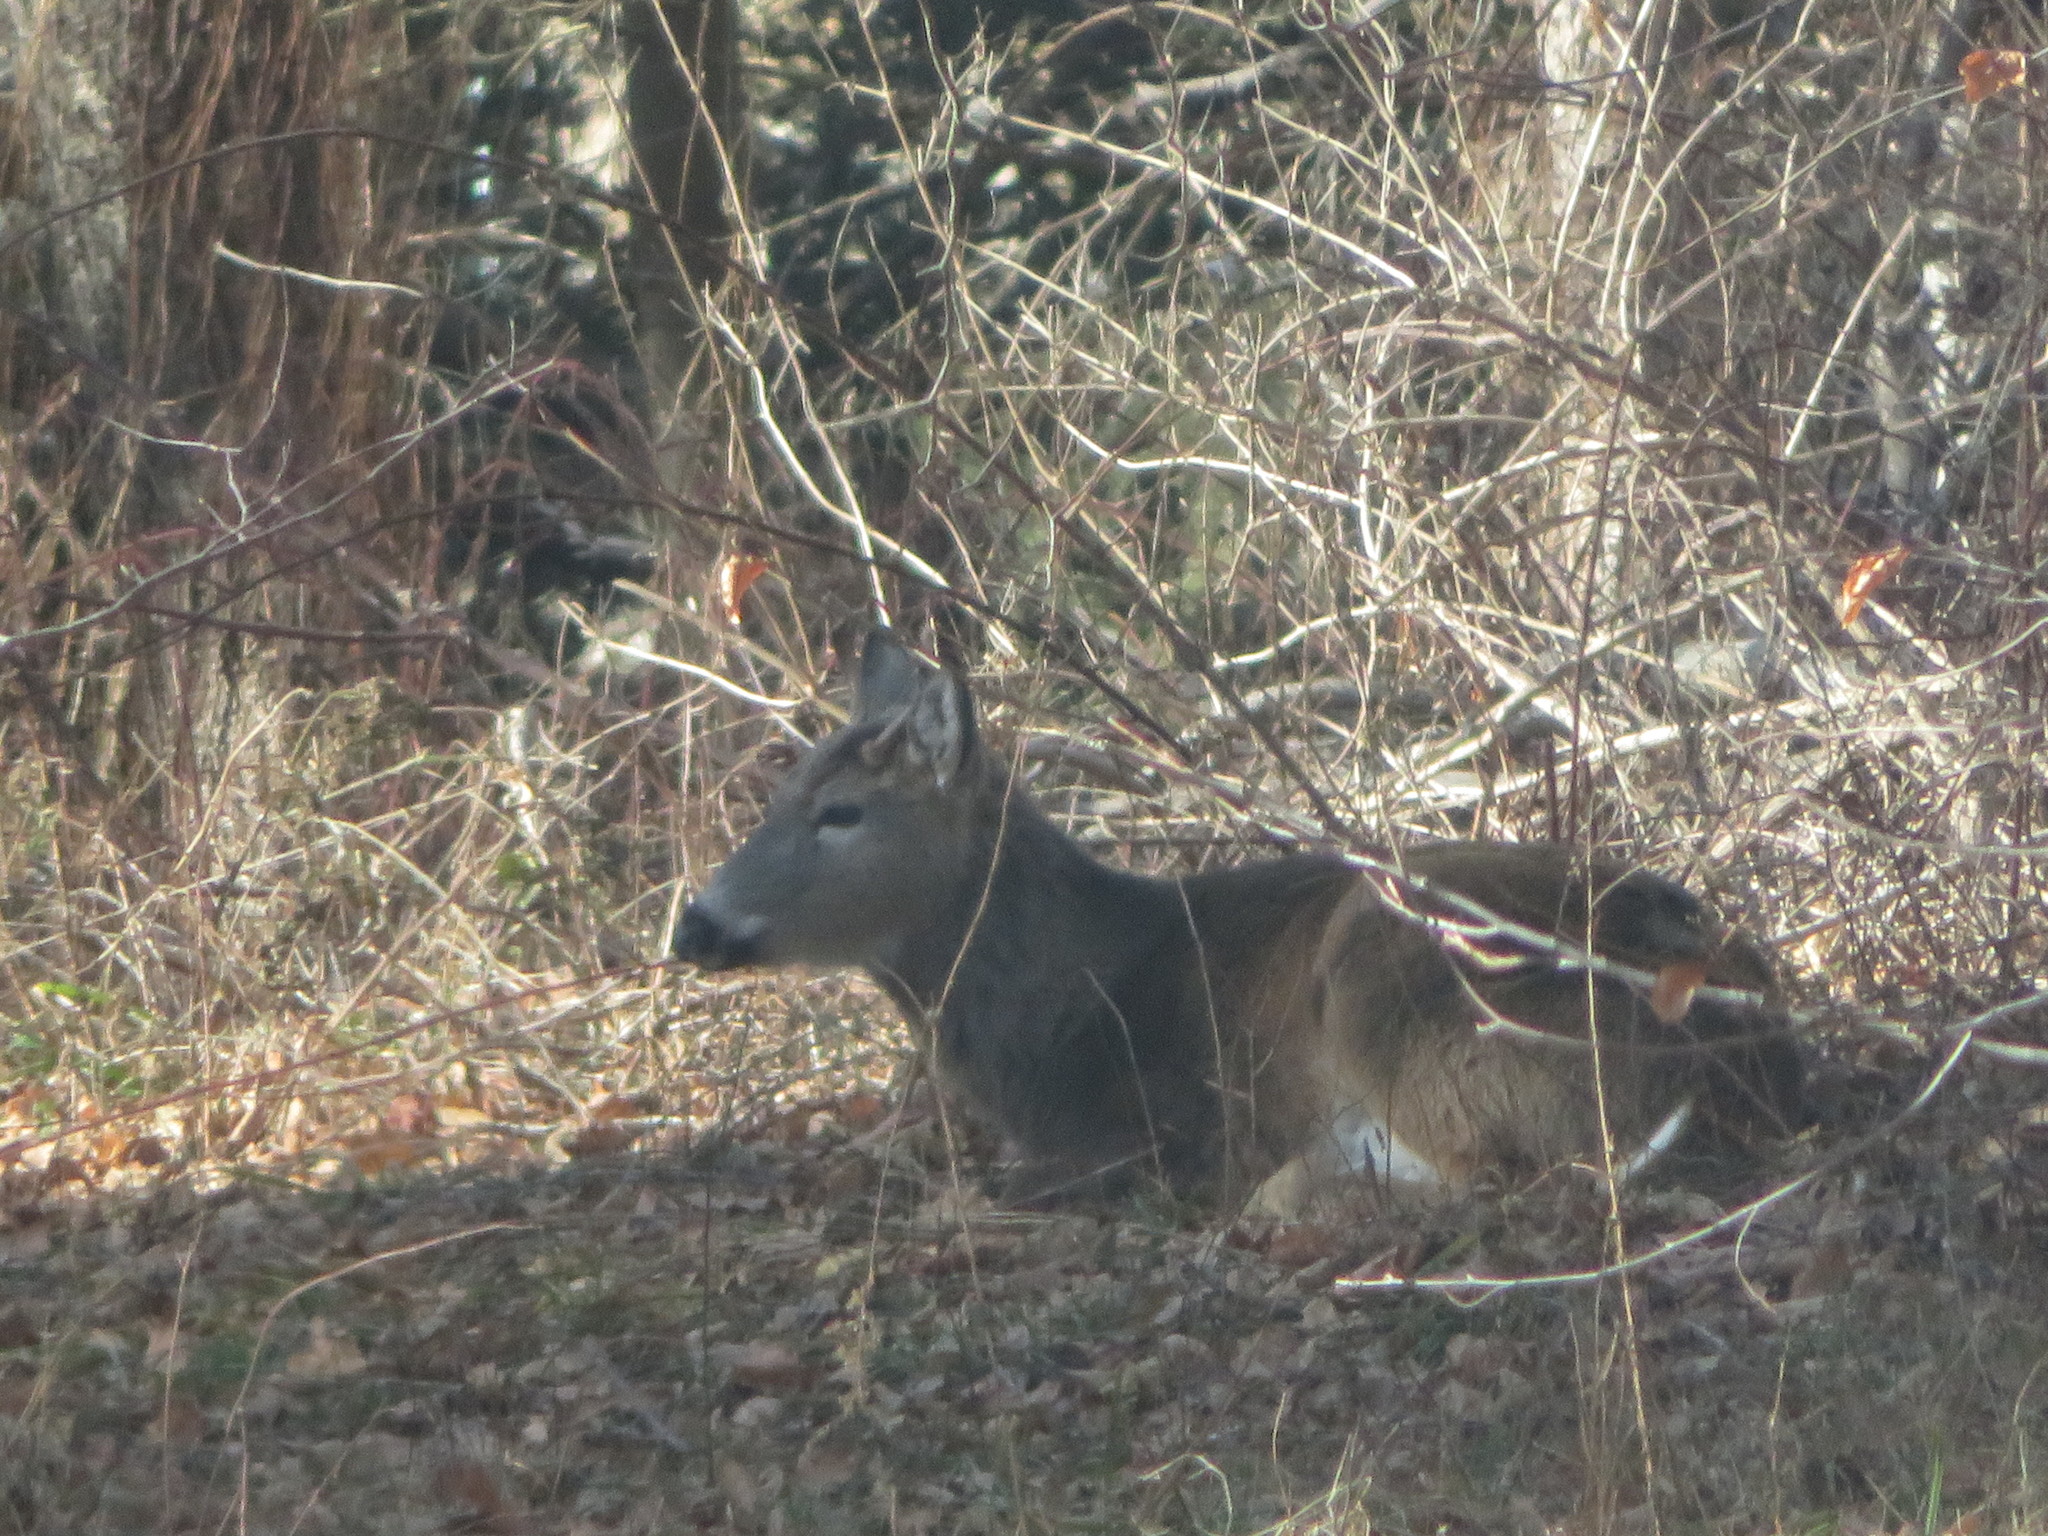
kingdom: Animalia
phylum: Chordata
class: Mammalia
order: Artiodactyla
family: Cervidae
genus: Odocoileus
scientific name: Odocoileus virginianus
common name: White-tailed deer
